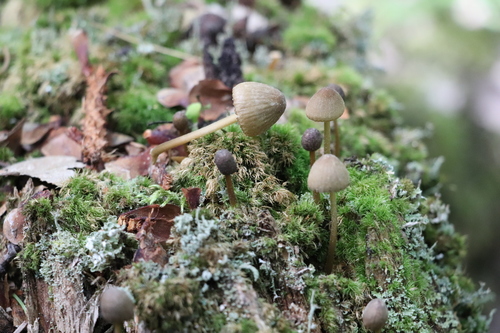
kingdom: Fungi
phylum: Basidiomycota
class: Agaricomycetes
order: Agaricales
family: Mycenaceae
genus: Mycena
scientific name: Mycena viridimarginata
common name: Olive edge bonnet
